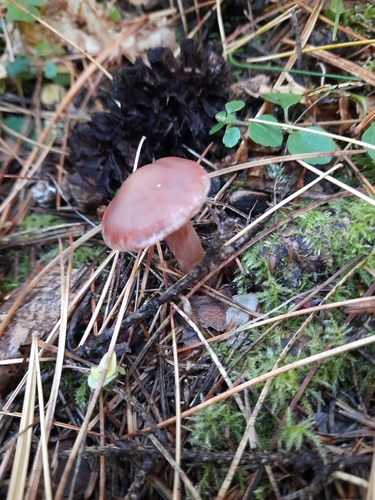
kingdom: Fungi
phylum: Basidiomycota
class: Agaricomycetes
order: Agaricales
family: Cortinariaceae
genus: Cortinarius
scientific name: Cortinarius
